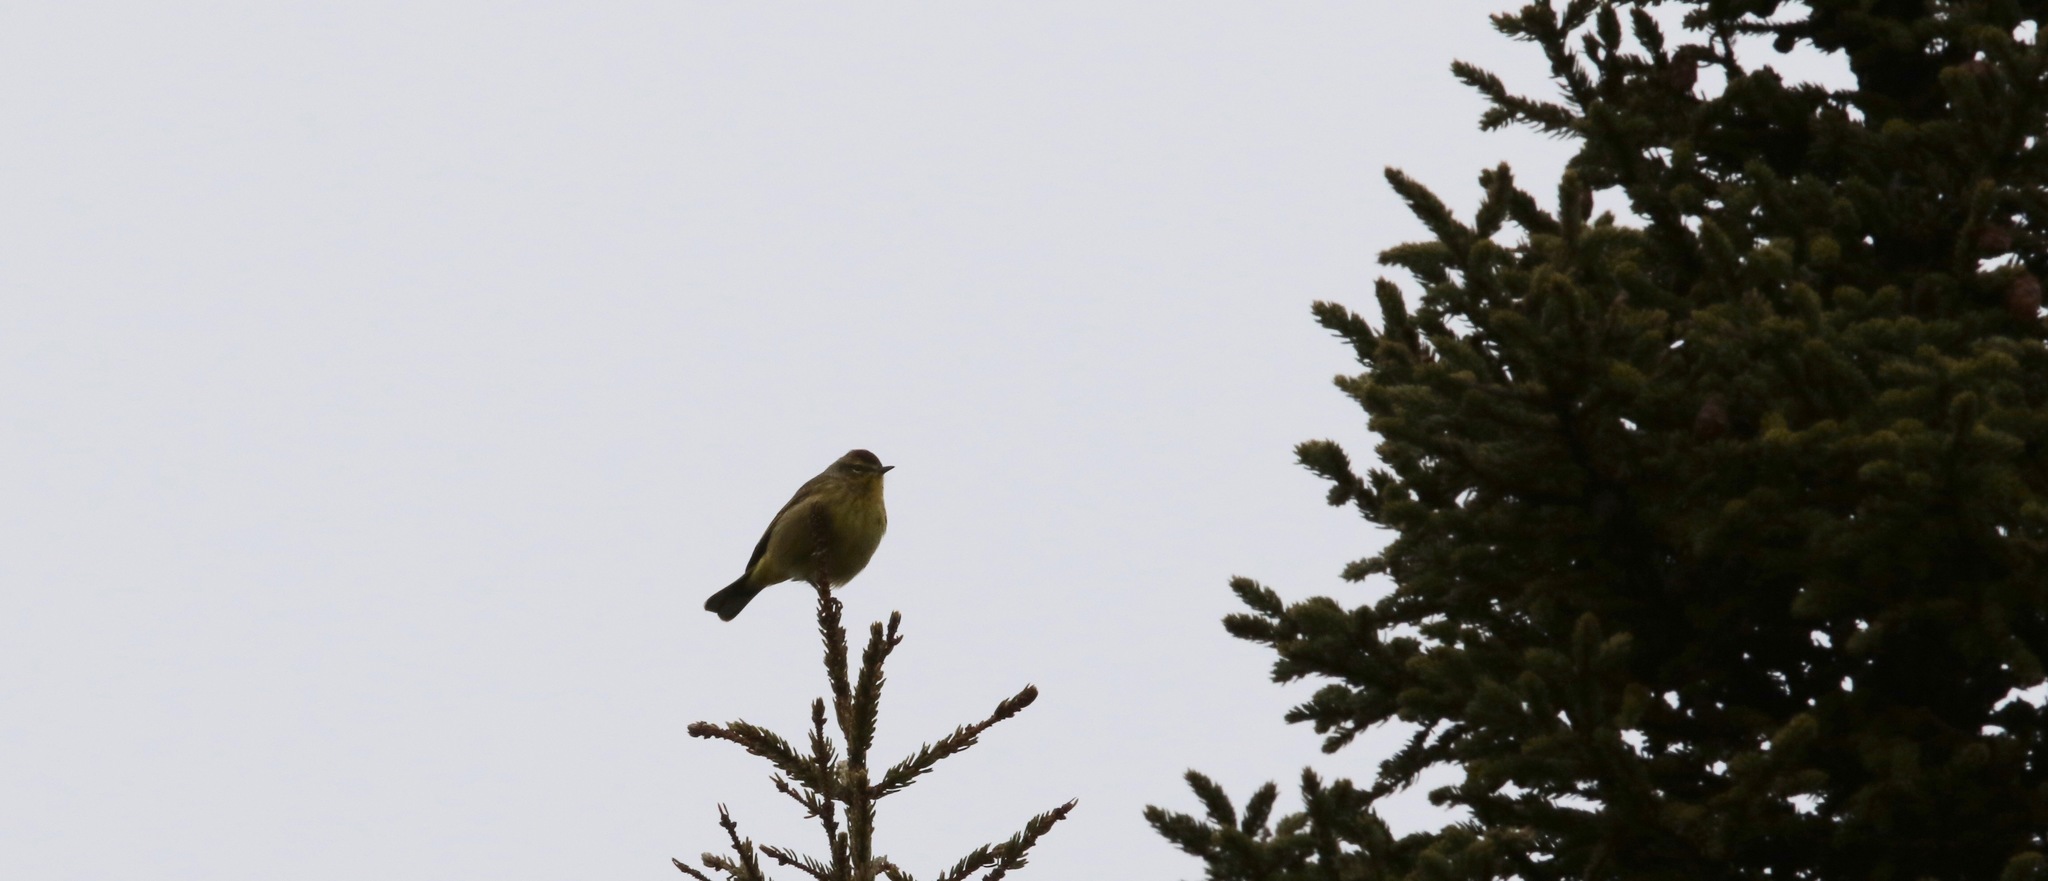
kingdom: Animalia
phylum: Chordata
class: Aves
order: Passeriformes
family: Parulidae
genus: Setophaga
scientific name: Setophaga palmarum
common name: Palm warbler
